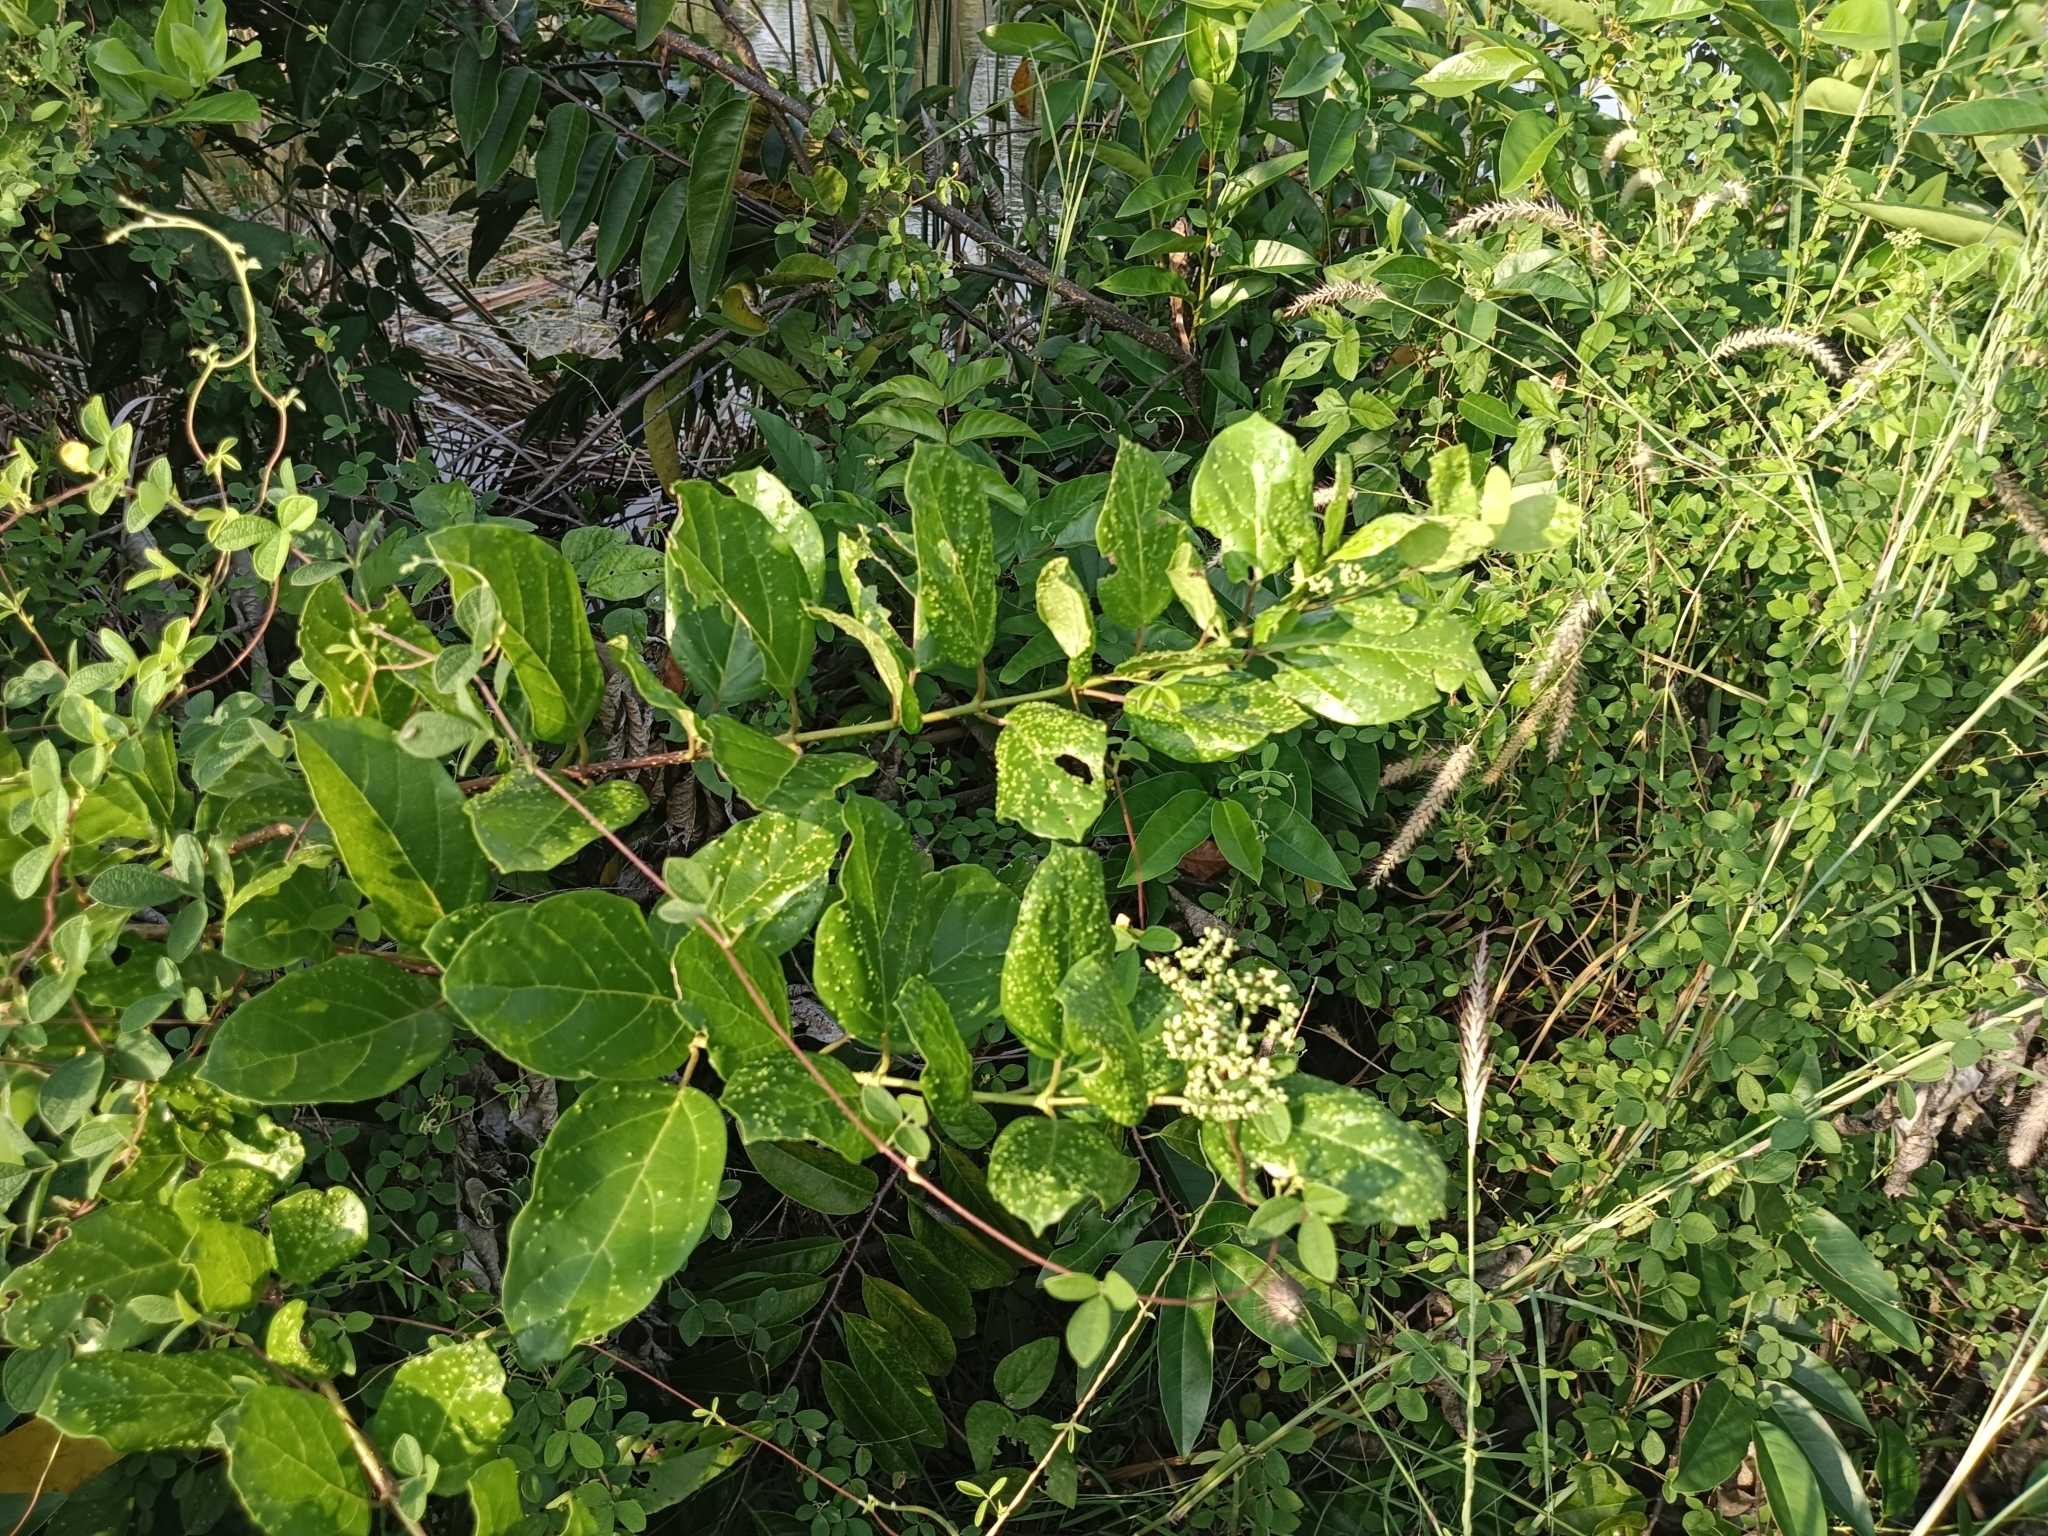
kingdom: Plantae
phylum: Tracheophyta
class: Magnoliopsida
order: Lamiales
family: Lamiaceae
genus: Premna
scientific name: Premna serratifolia
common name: Bastard guelder
